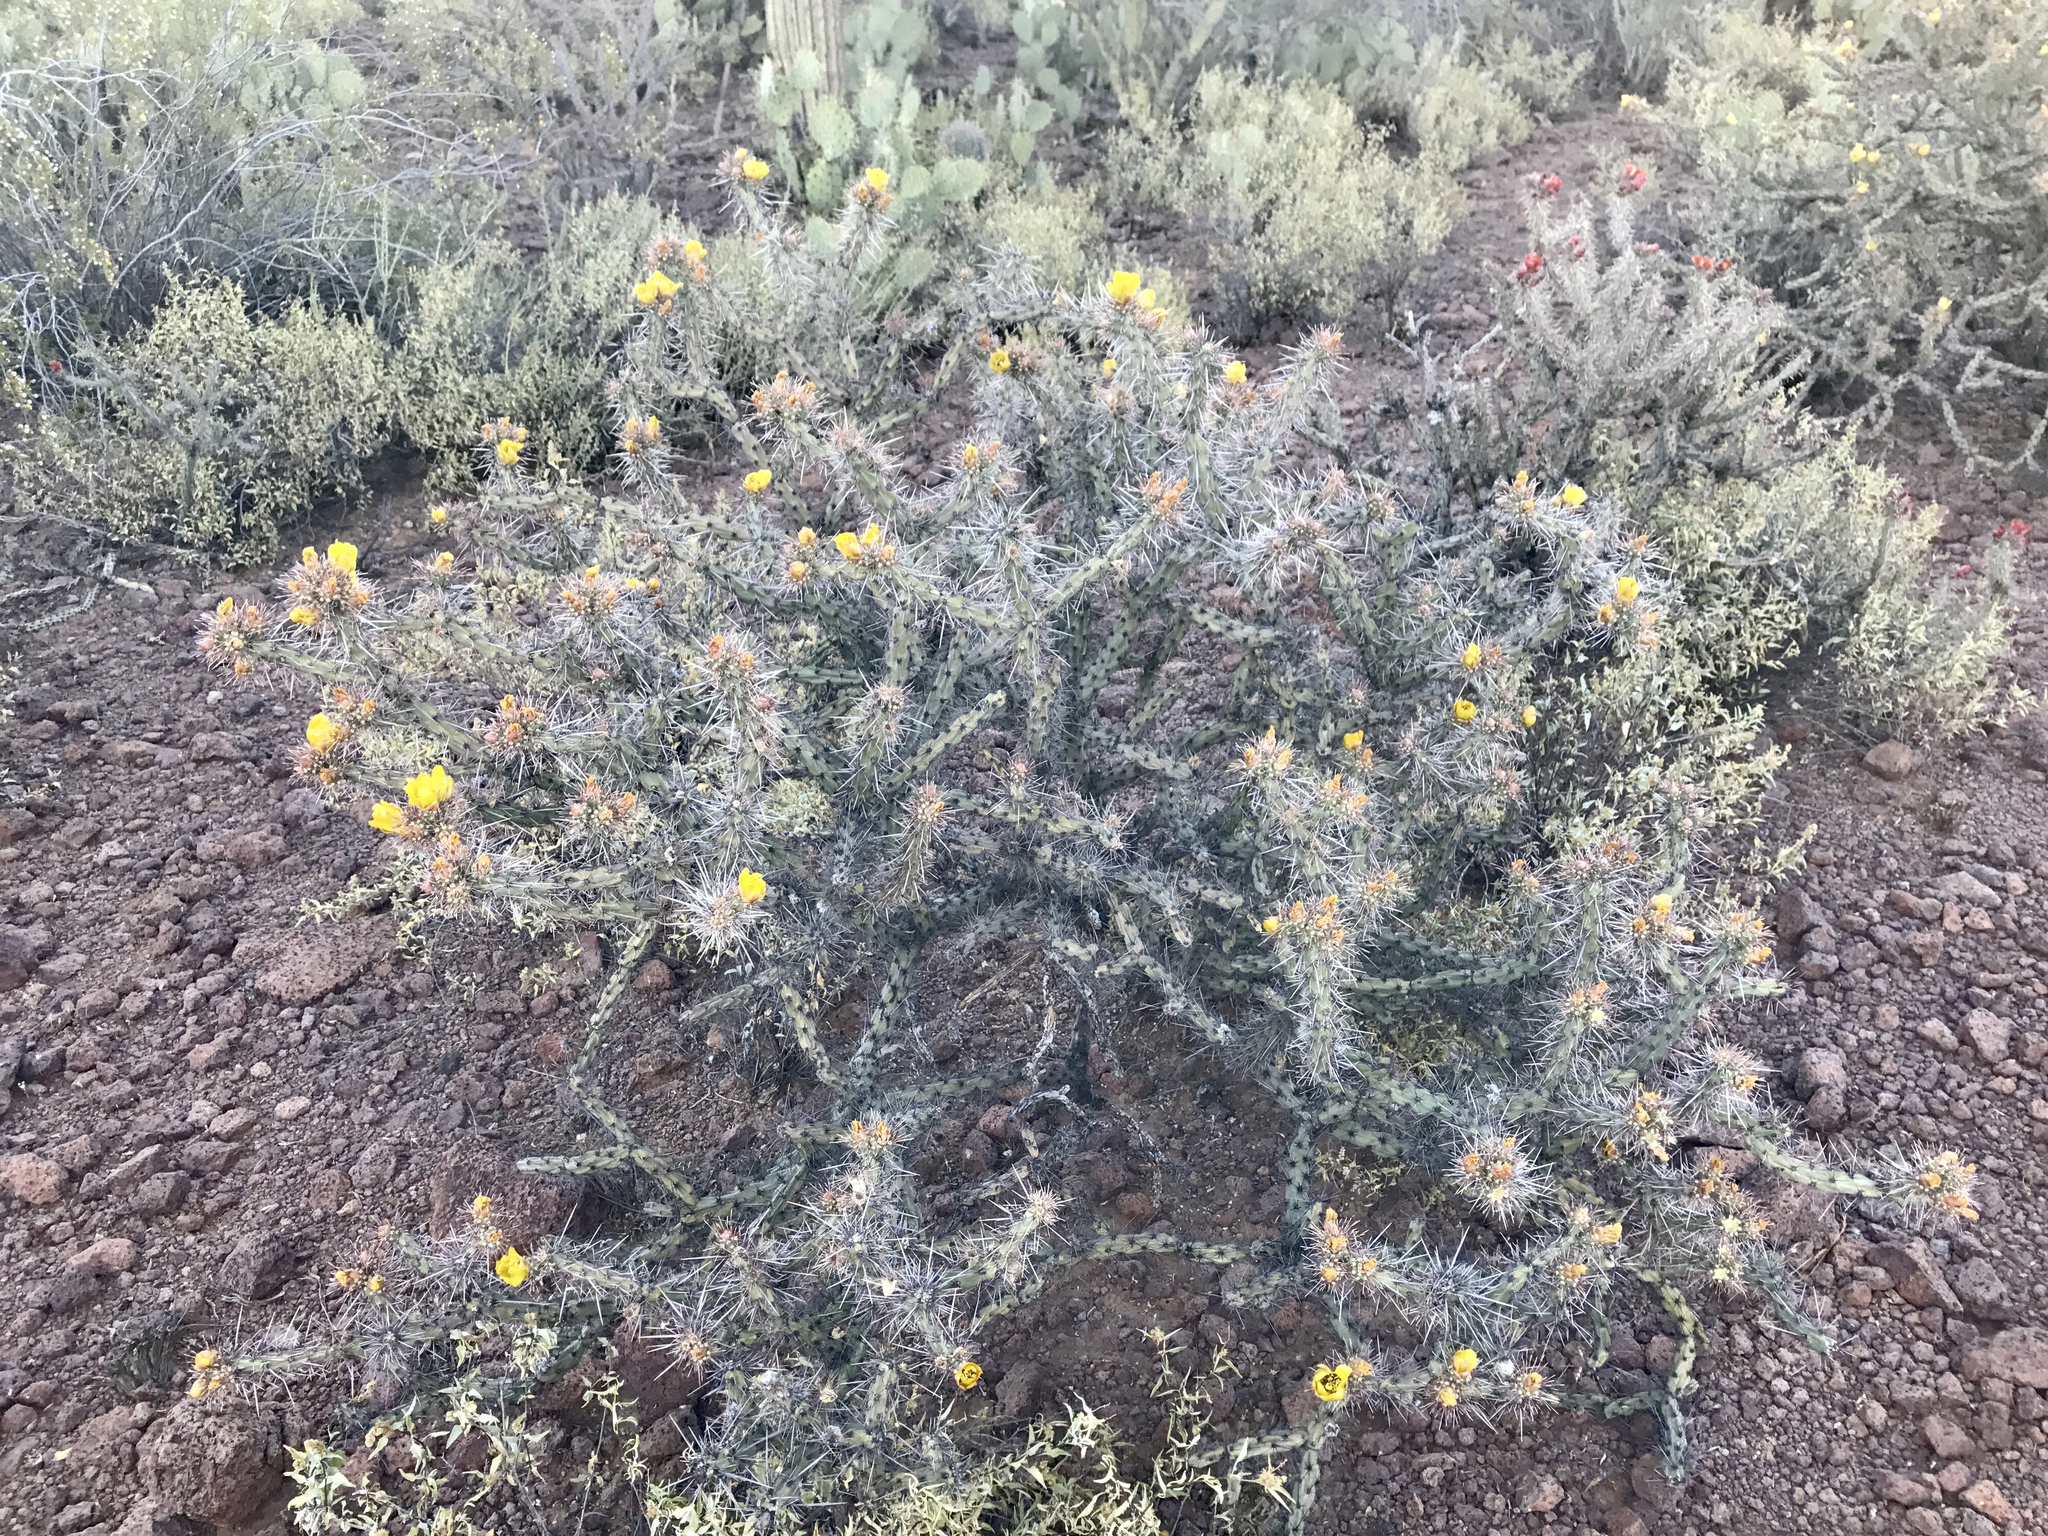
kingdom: Plantae
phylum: Tracheophyta
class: Magnoliopsida
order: Caryophyllales
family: Cactaceae
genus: Cylindropuntia
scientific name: Cylindropuntia acanthocarpa
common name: Buckhorn cholla
